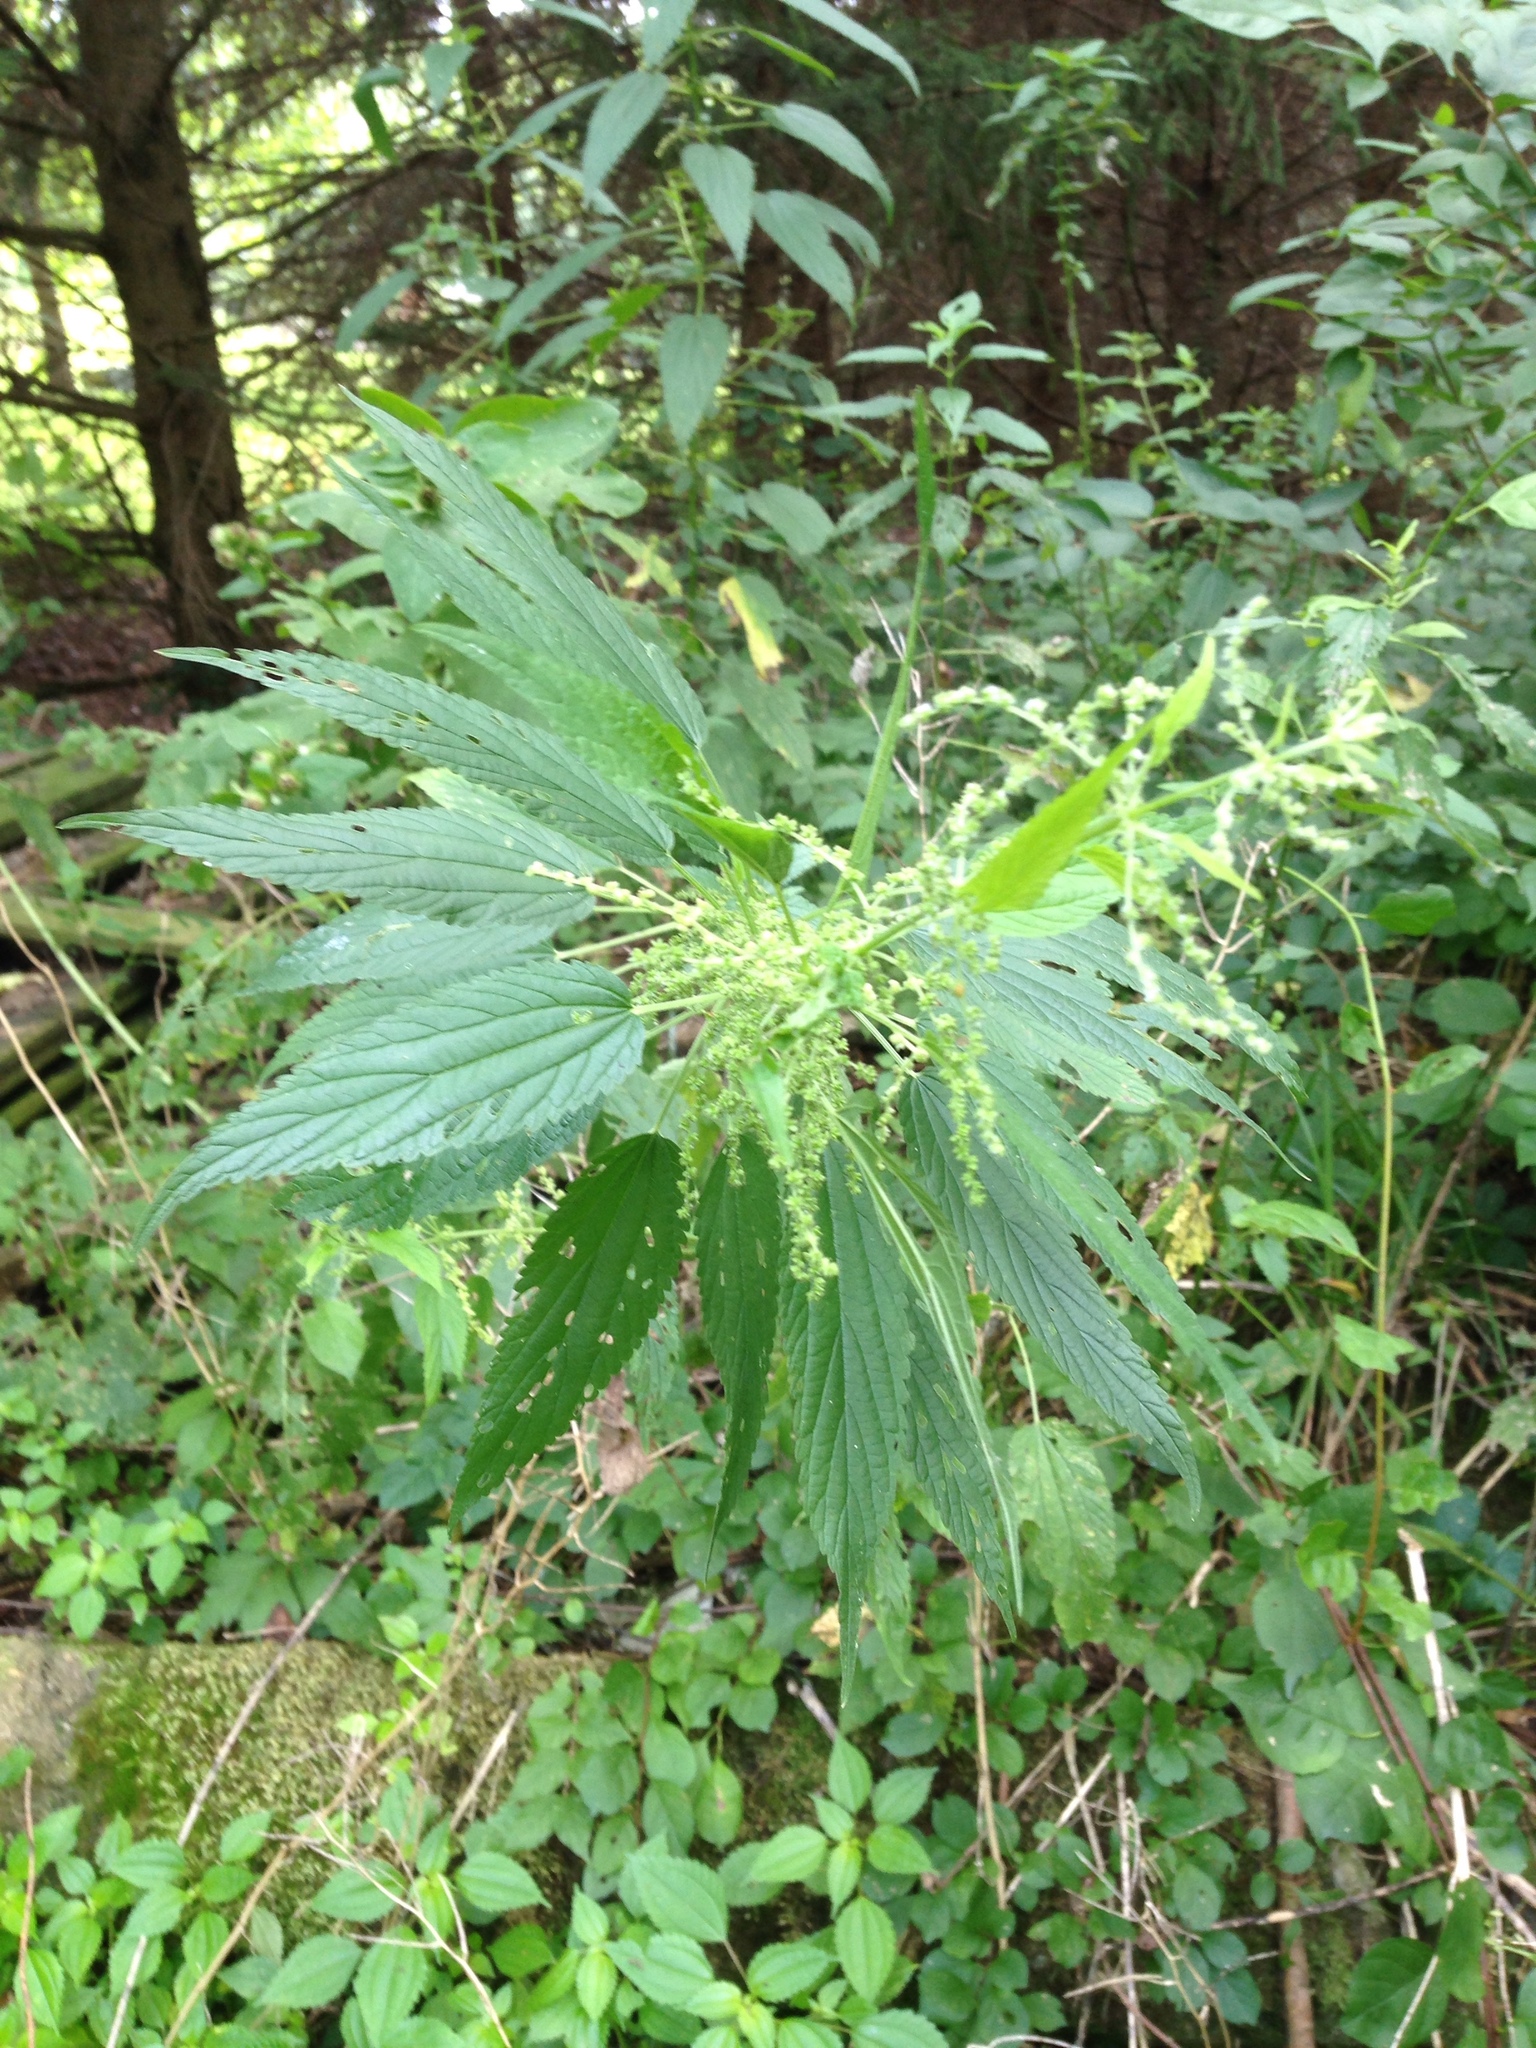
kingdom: Plantae
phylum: Tracheophyta
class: Magnoliopsida
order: Rosales
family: Urticaceae
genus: Urtica
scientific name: Urtica dioica
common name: Common nettle
